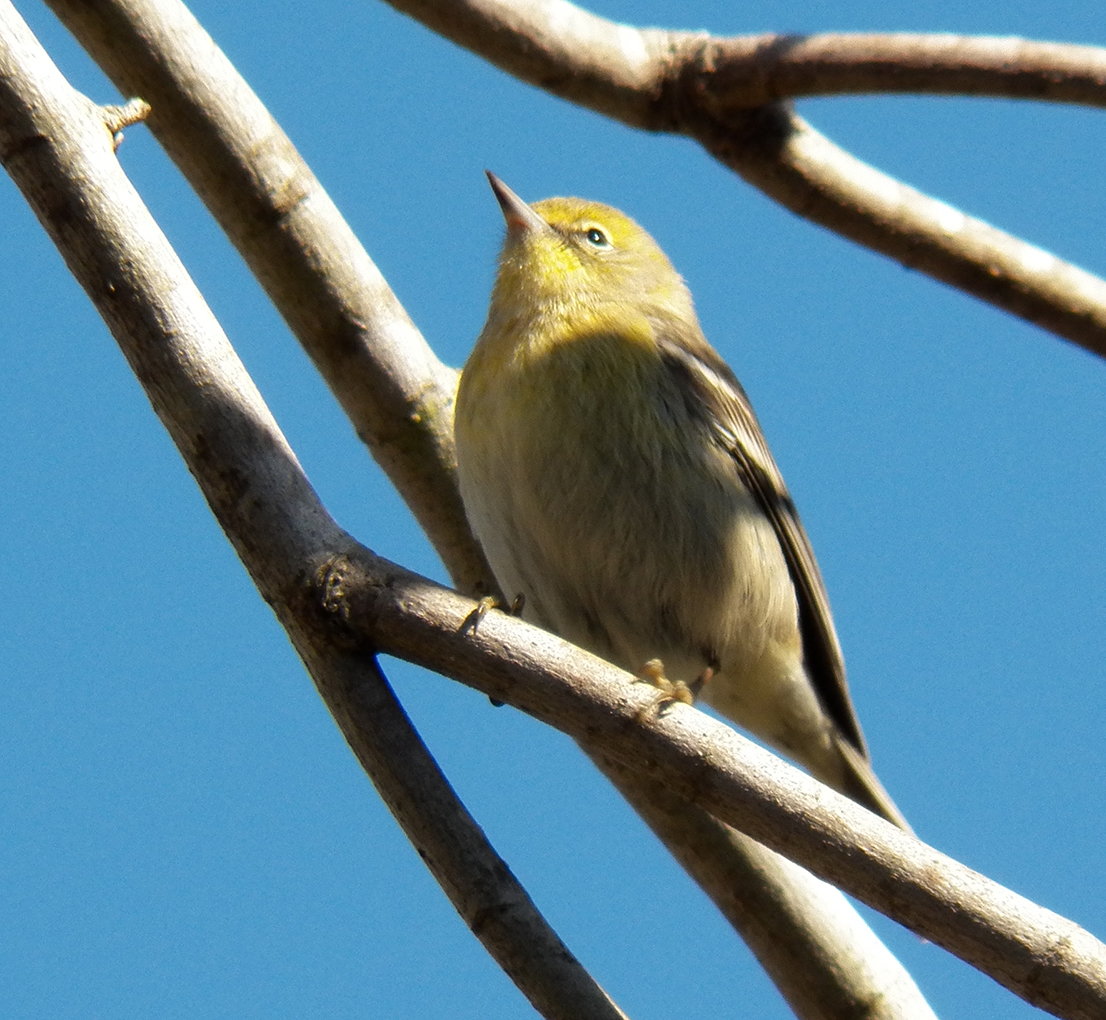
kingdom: Animalia
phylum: Chordata
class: Aves
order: Passeriformes
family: Parulidae
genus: Setophaga
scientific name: Setophaga pinus
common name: Pine warbler
